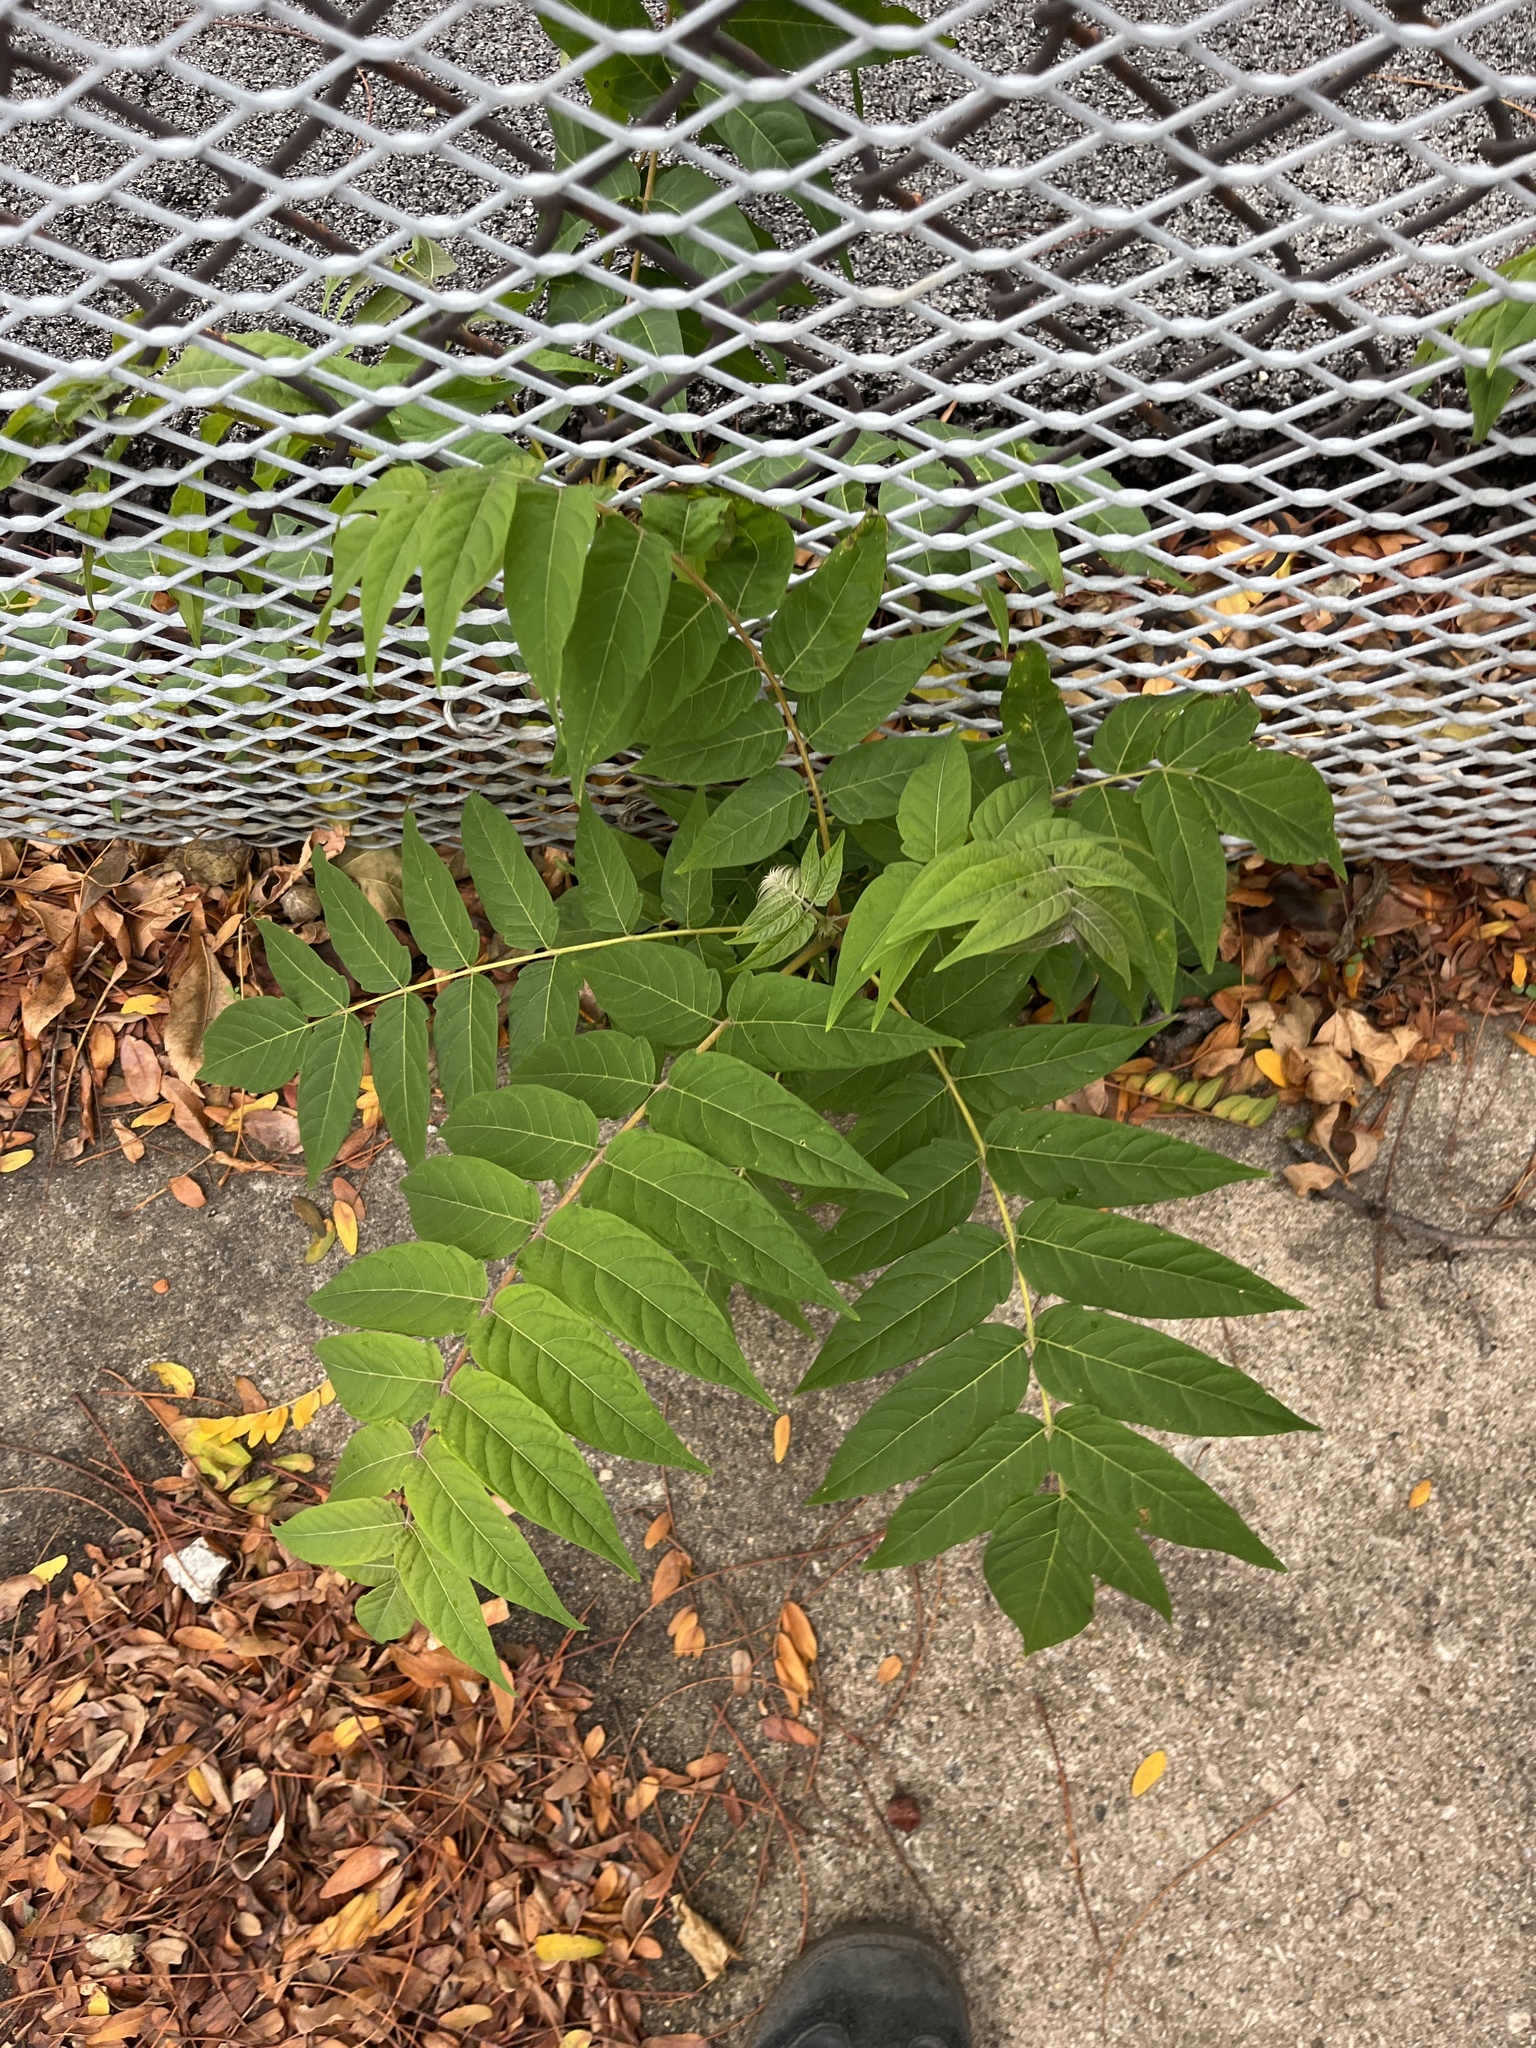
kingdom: Plantae
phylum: Tracheophyta
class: Magnoliopsida
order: Sapindales
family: Simaroubaceae
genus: Ailanthus
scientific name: Ailanthus altissima
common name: Tree-of-heaven
